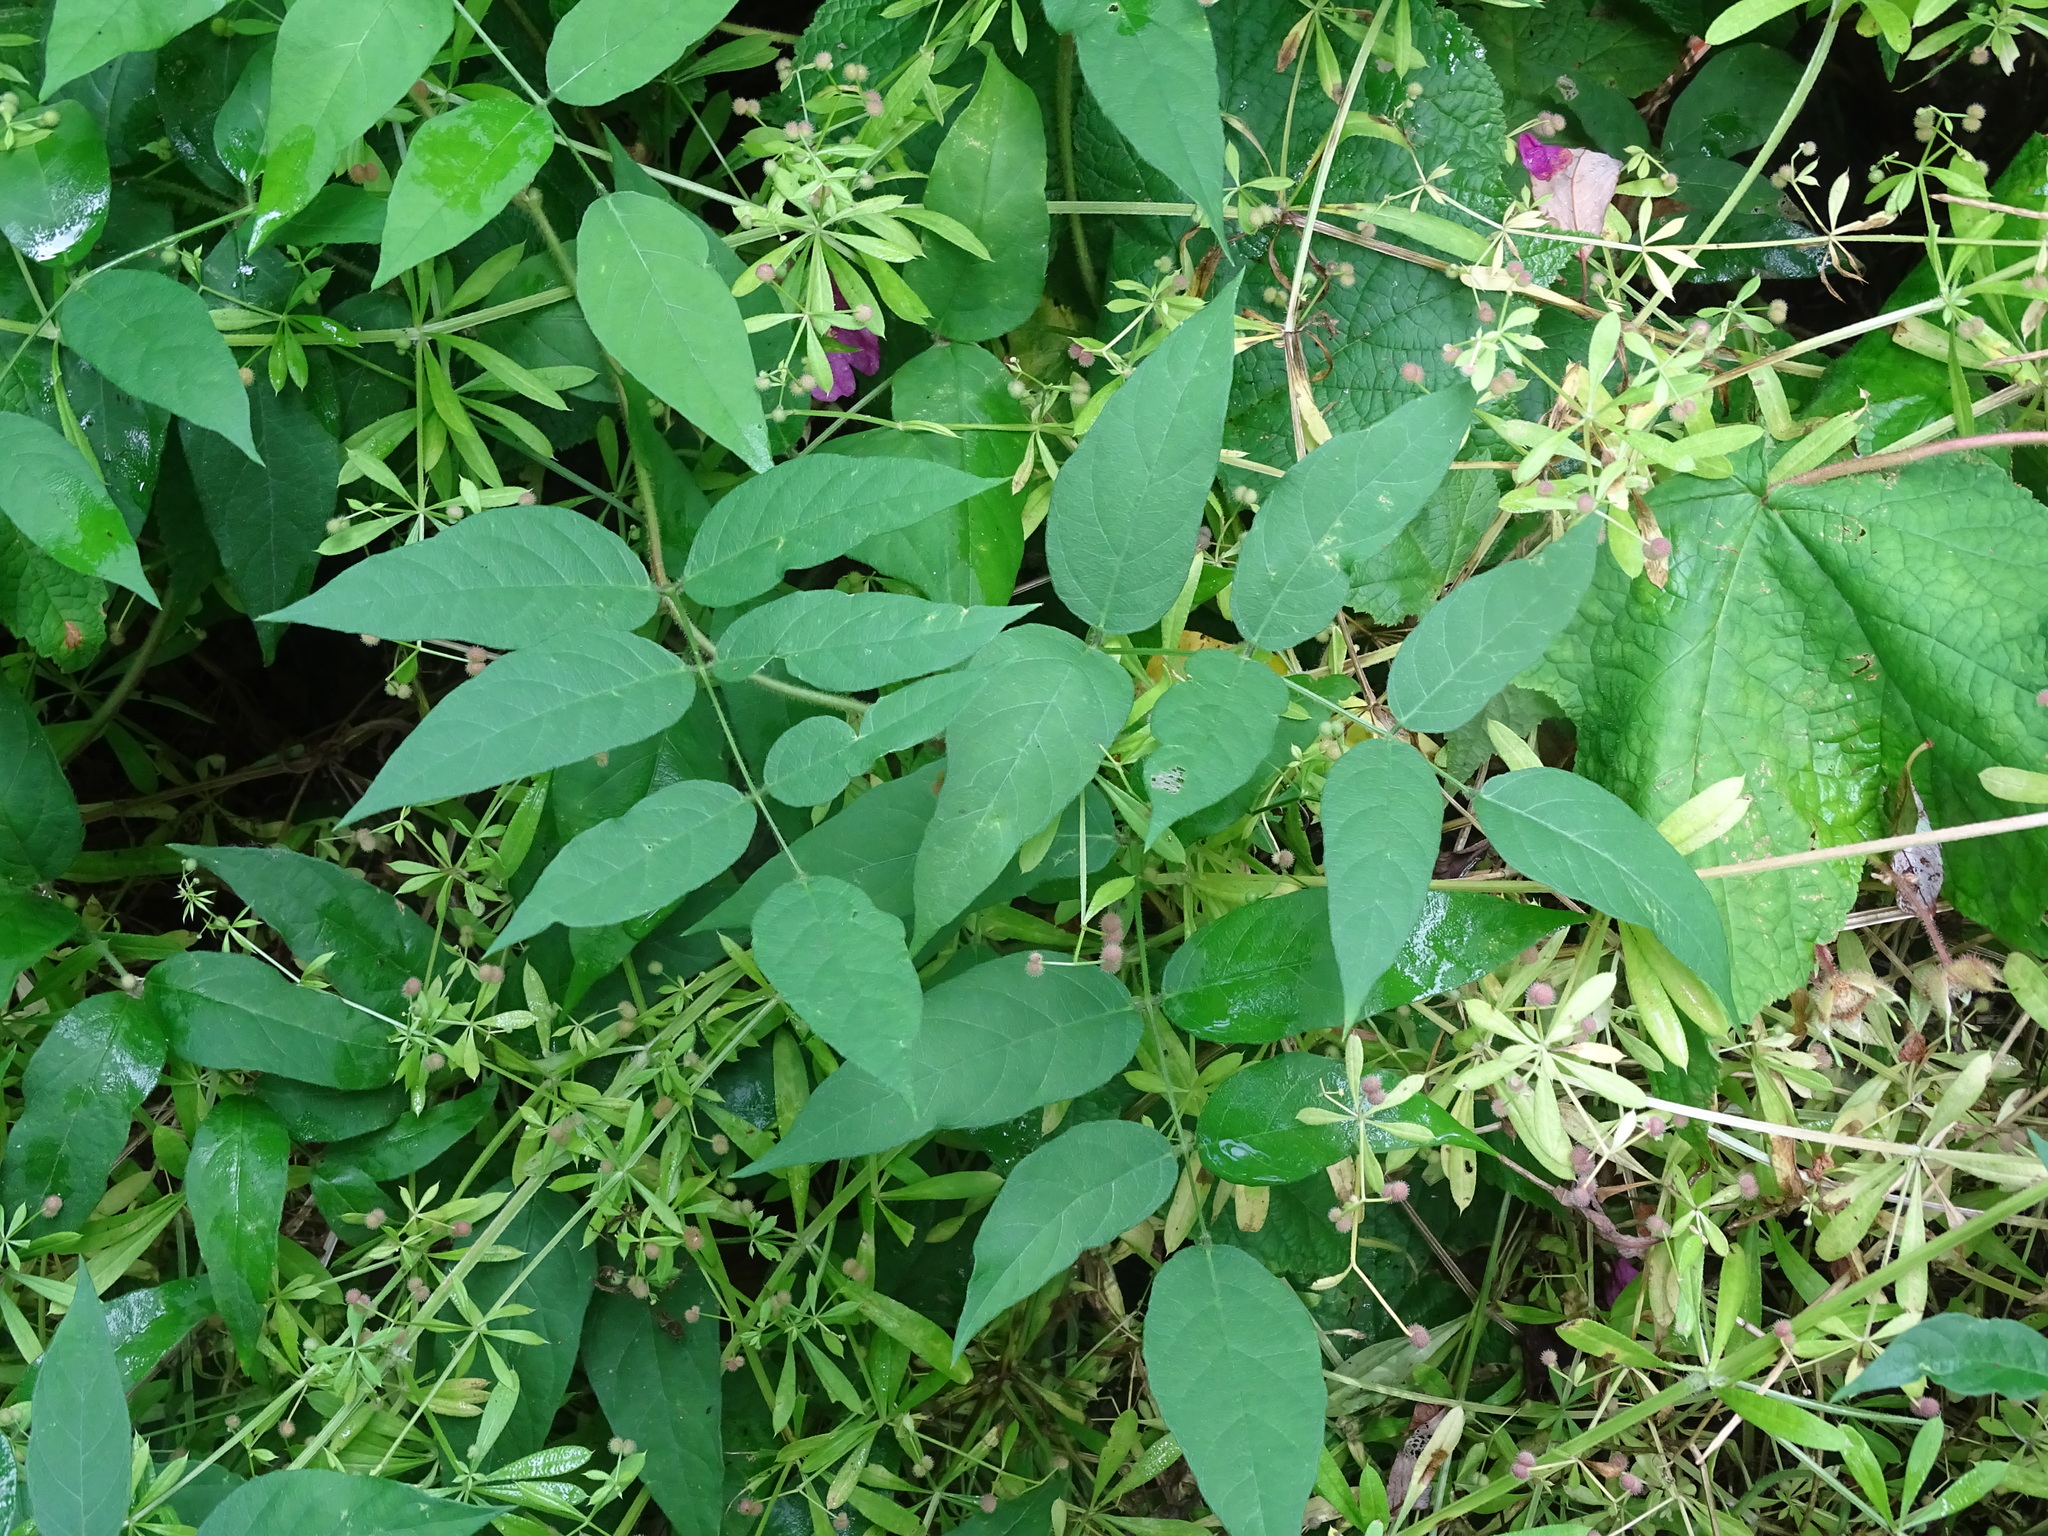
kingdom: Plantae
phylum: Tracheophyta
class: Magnoliopsida
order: Fabales
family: Fabaceae
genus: Apios
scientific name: Apios americana
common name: American potato-bean
